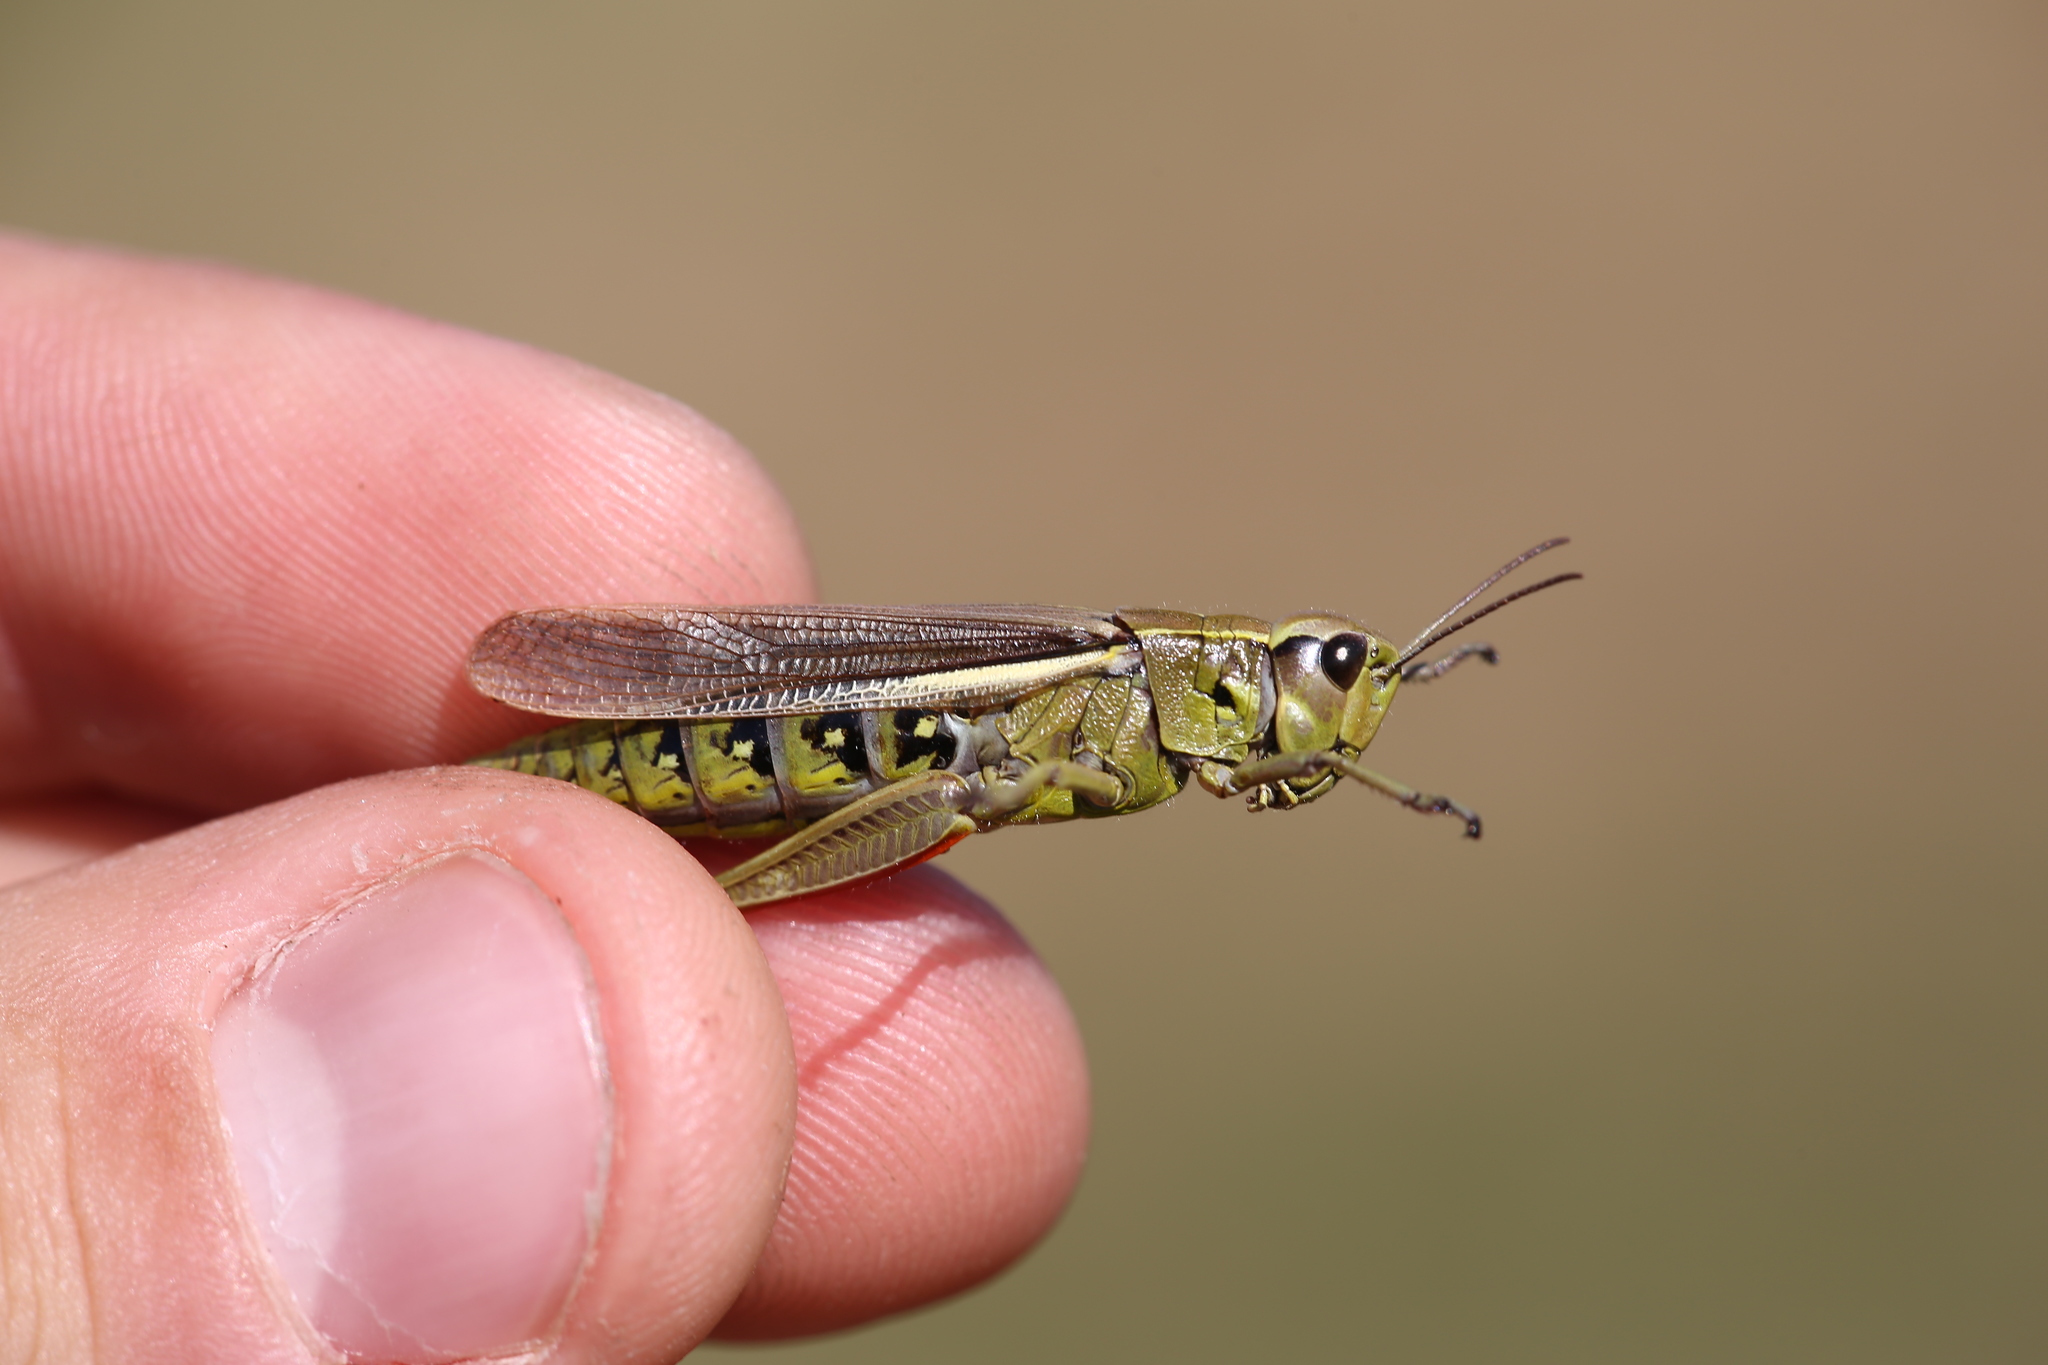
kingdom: Animalia
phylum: Arthropoda
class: Insecta
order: Orthoptera
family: Acrididae
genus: Stethophyma
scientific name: Stethophyma grossum
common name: Large marsh grasshopper
